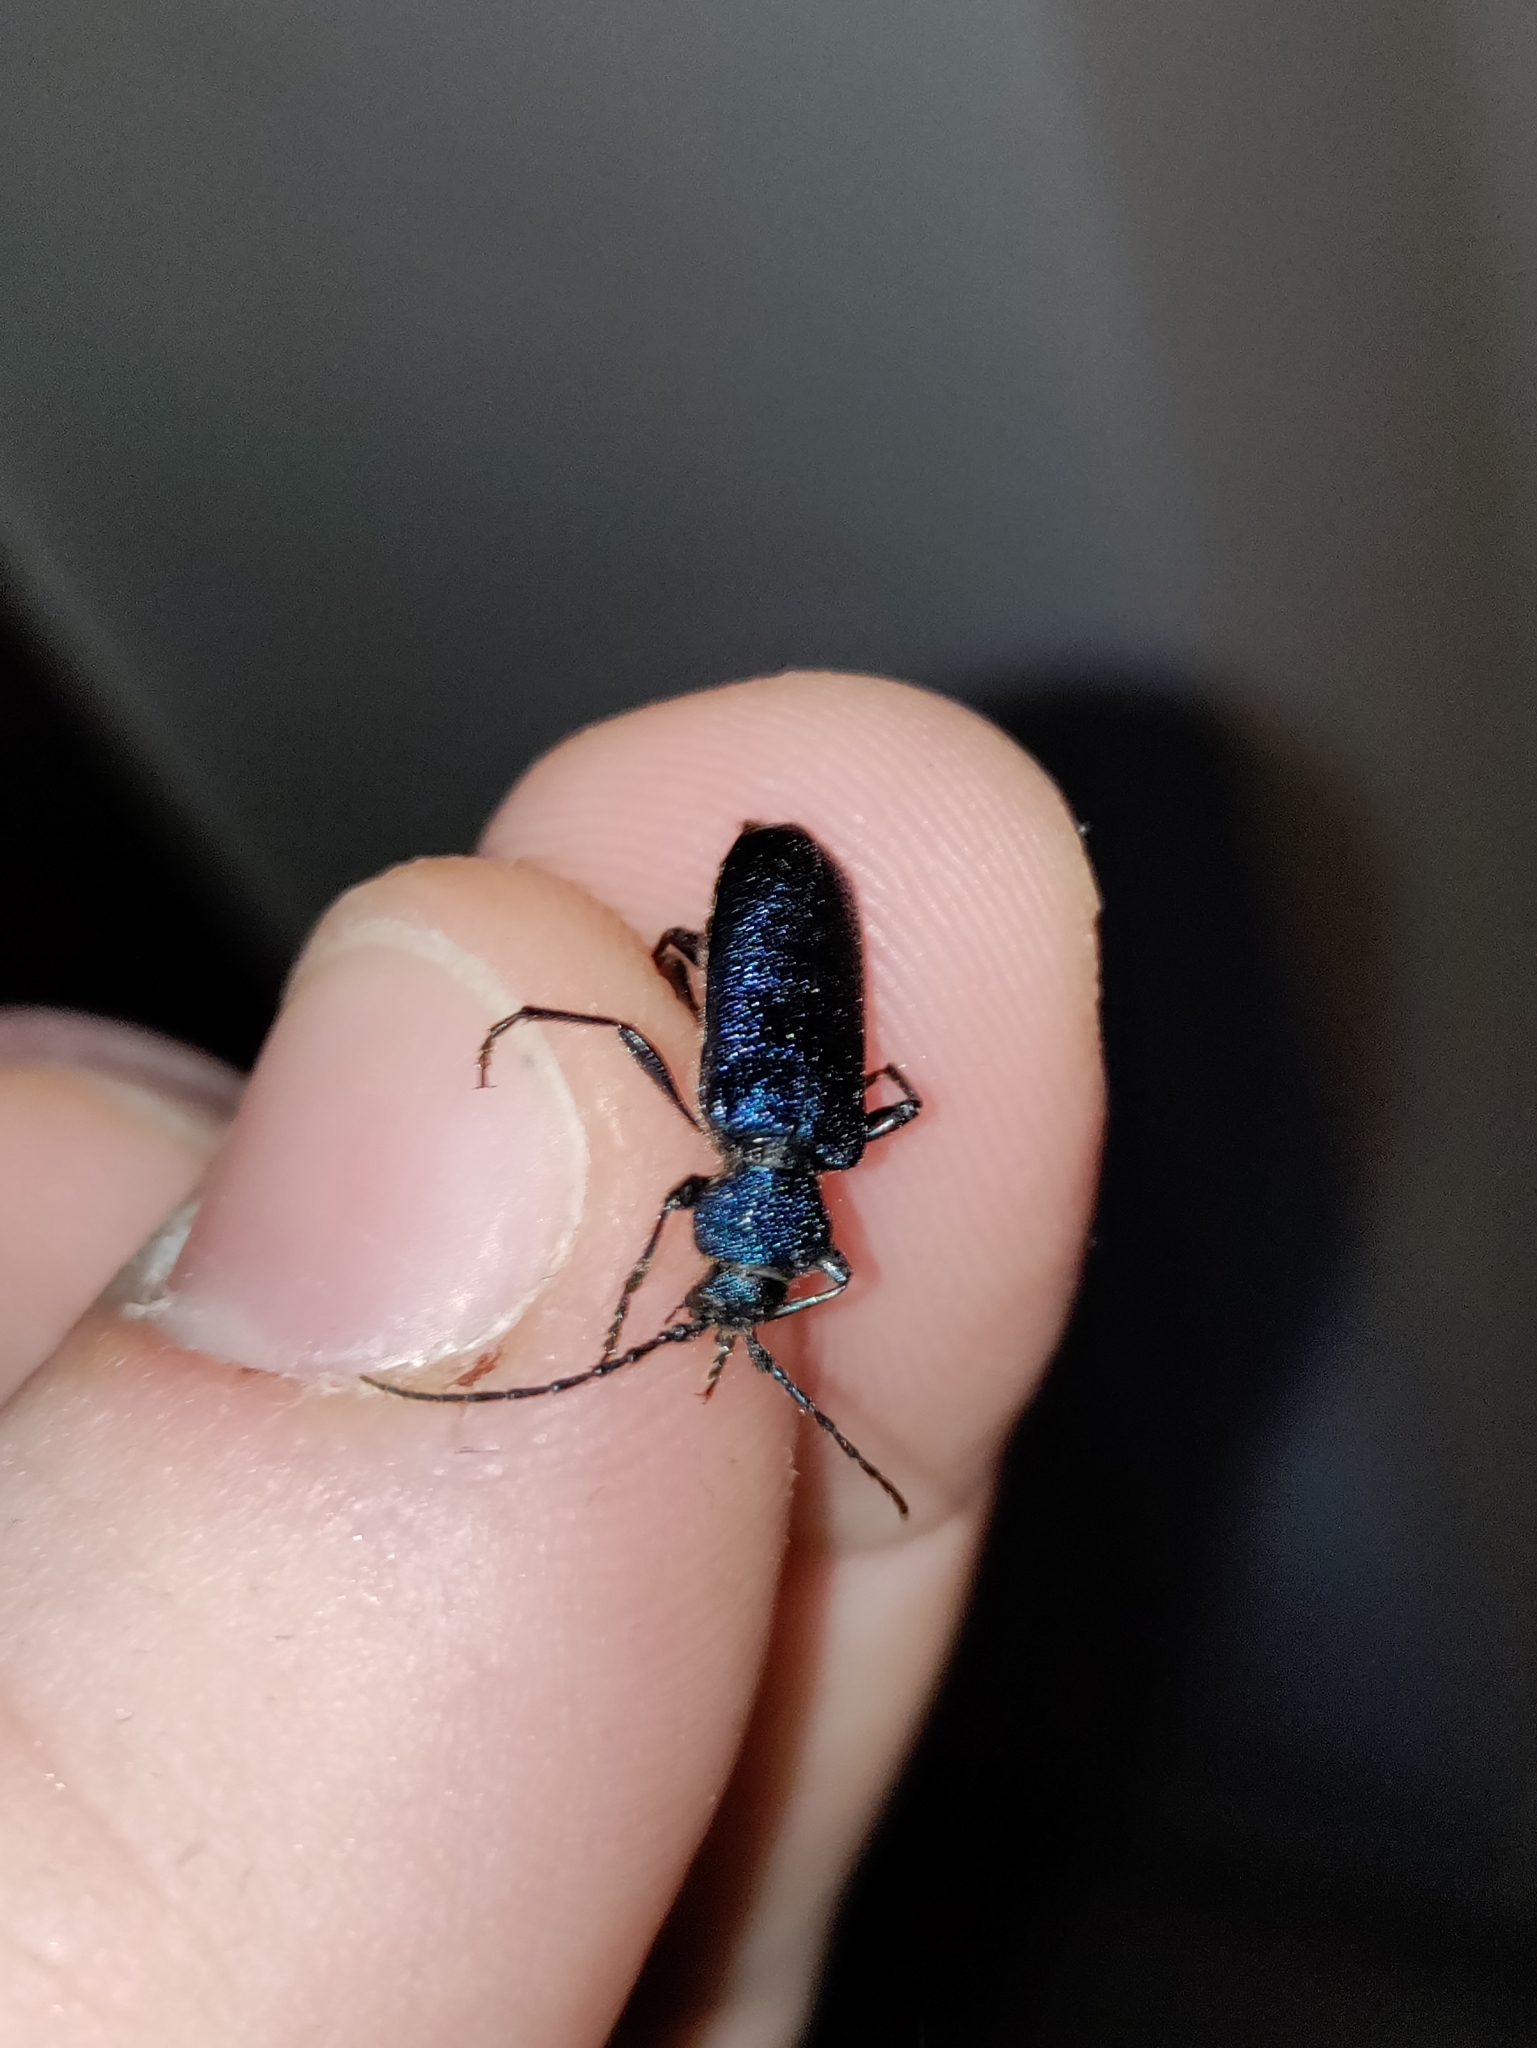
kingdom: Animalia
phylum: Arthropoda
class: Insecta
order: Coleoptera
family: Cerambycidae
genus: Callidium
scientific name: Callidium violaceum
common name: Violet tanbark beetle
